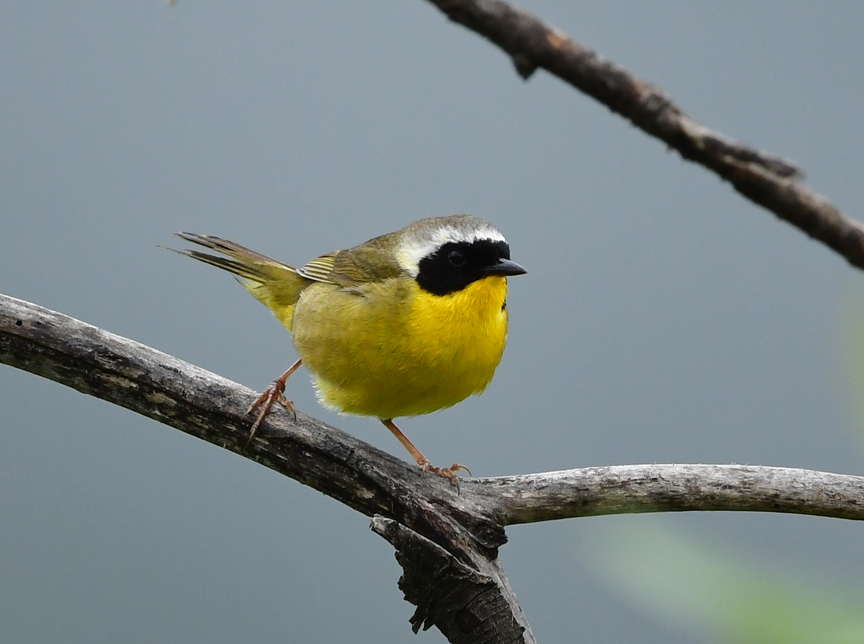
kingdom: Animalia
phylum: Chordata
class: Aves
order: Passeriformes
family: Parulidae
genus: Geothlypis
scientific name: Geothlypis trichas
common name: Common yellowthroat
